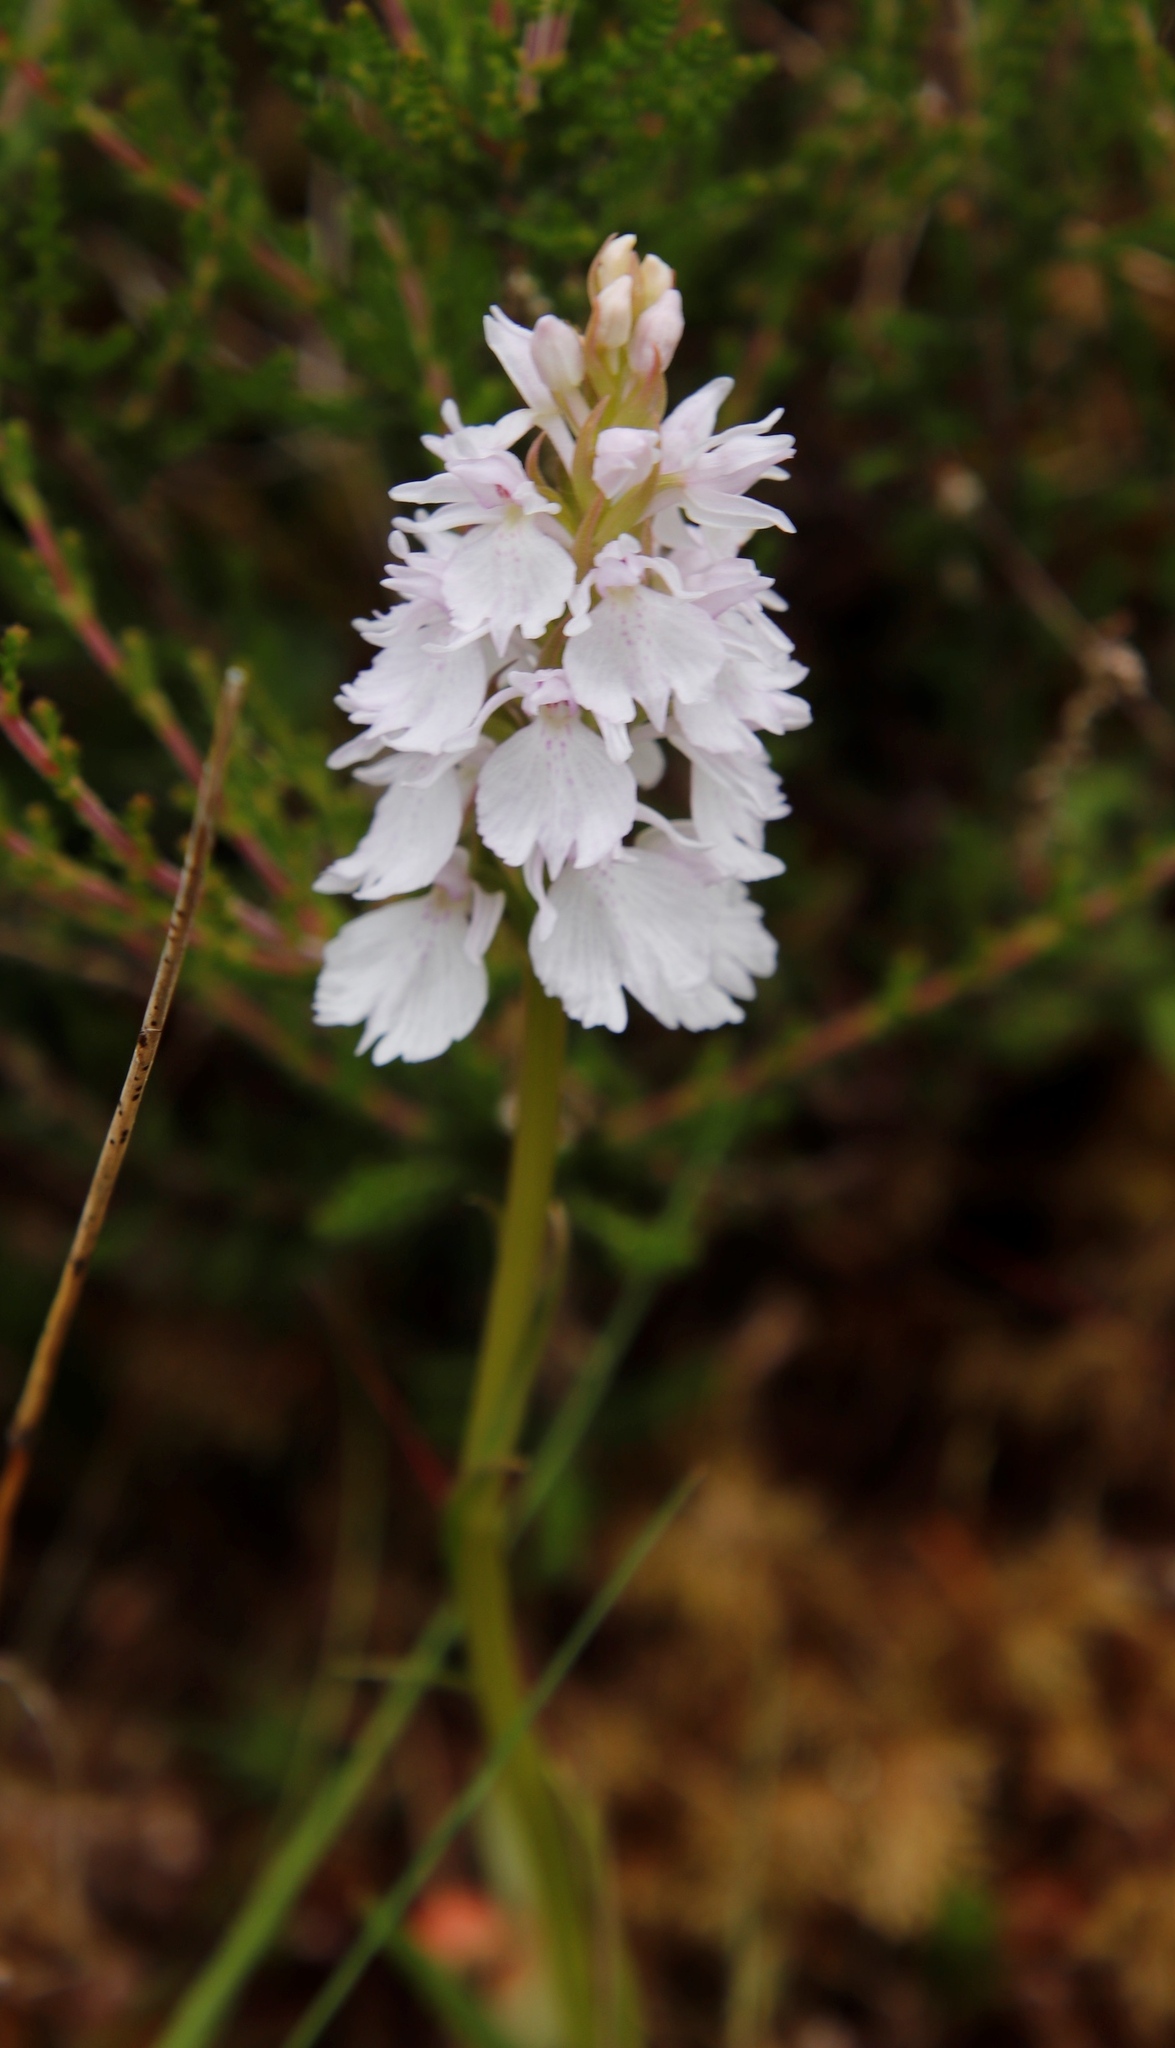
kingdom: Plantae
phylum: Tracheophyta
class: Liliopsida
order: Asparagales
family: Orchidaceae
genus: Dactylorhiza
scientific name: Dactylorhiza maculata
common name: Heath spotted-orchid
